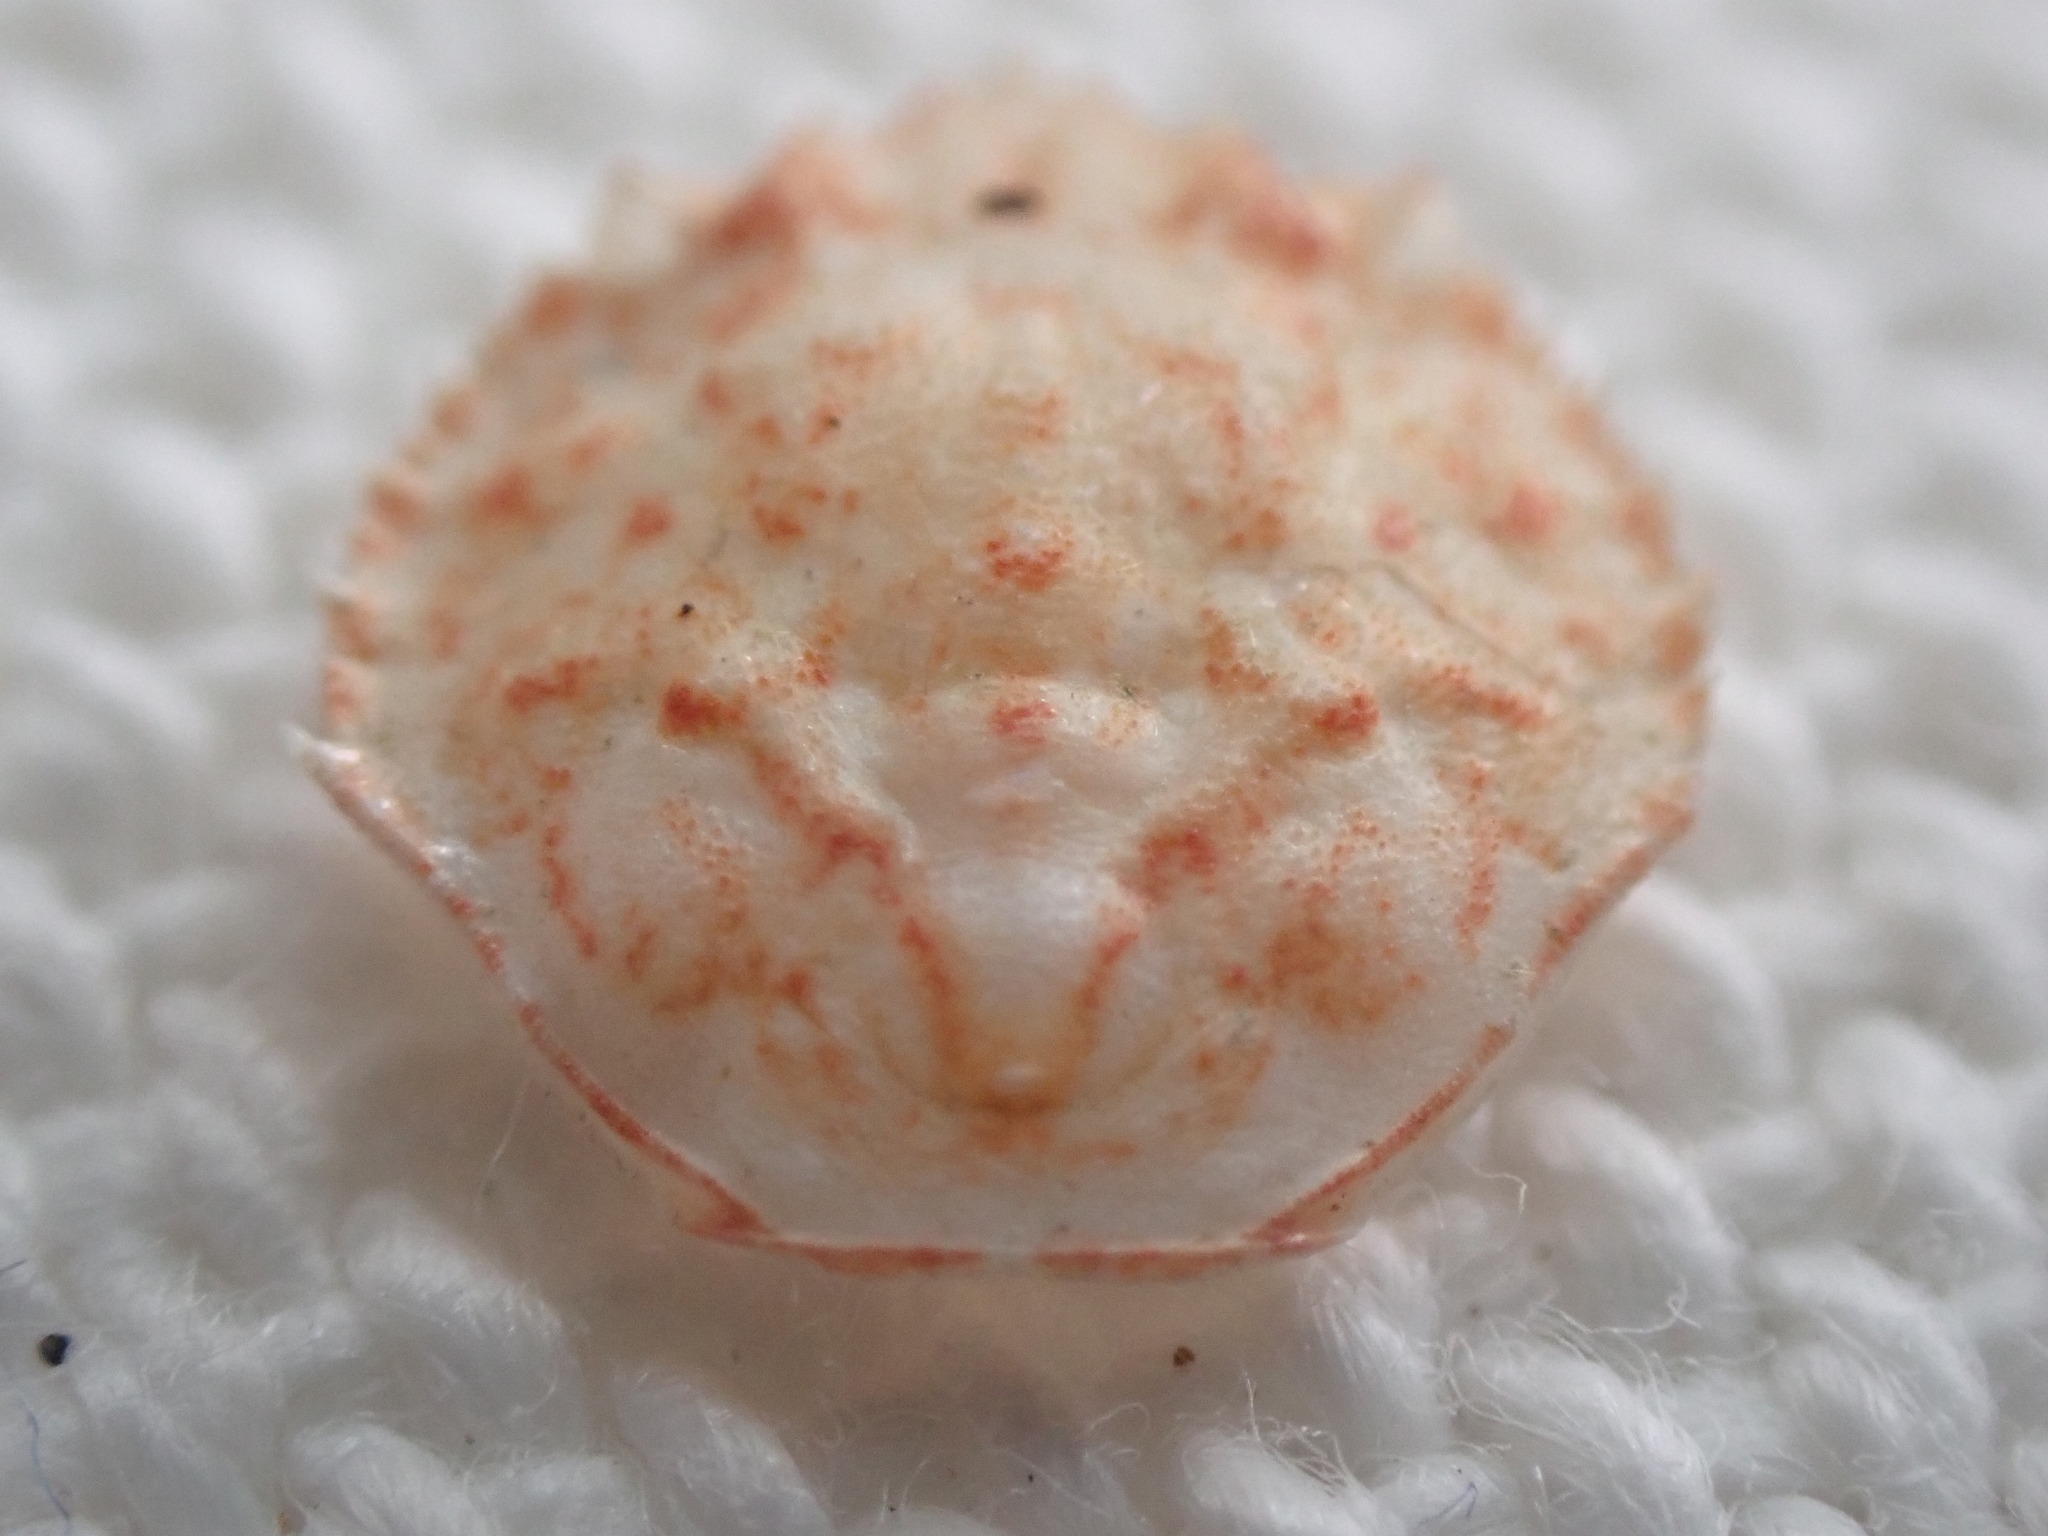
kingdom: Animalia
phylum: Arthropoda
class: Malacostraca
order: Decapoda
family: Cancridae
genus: Metacarcinus
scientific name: Metacarcinus magister
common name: Californian crab
